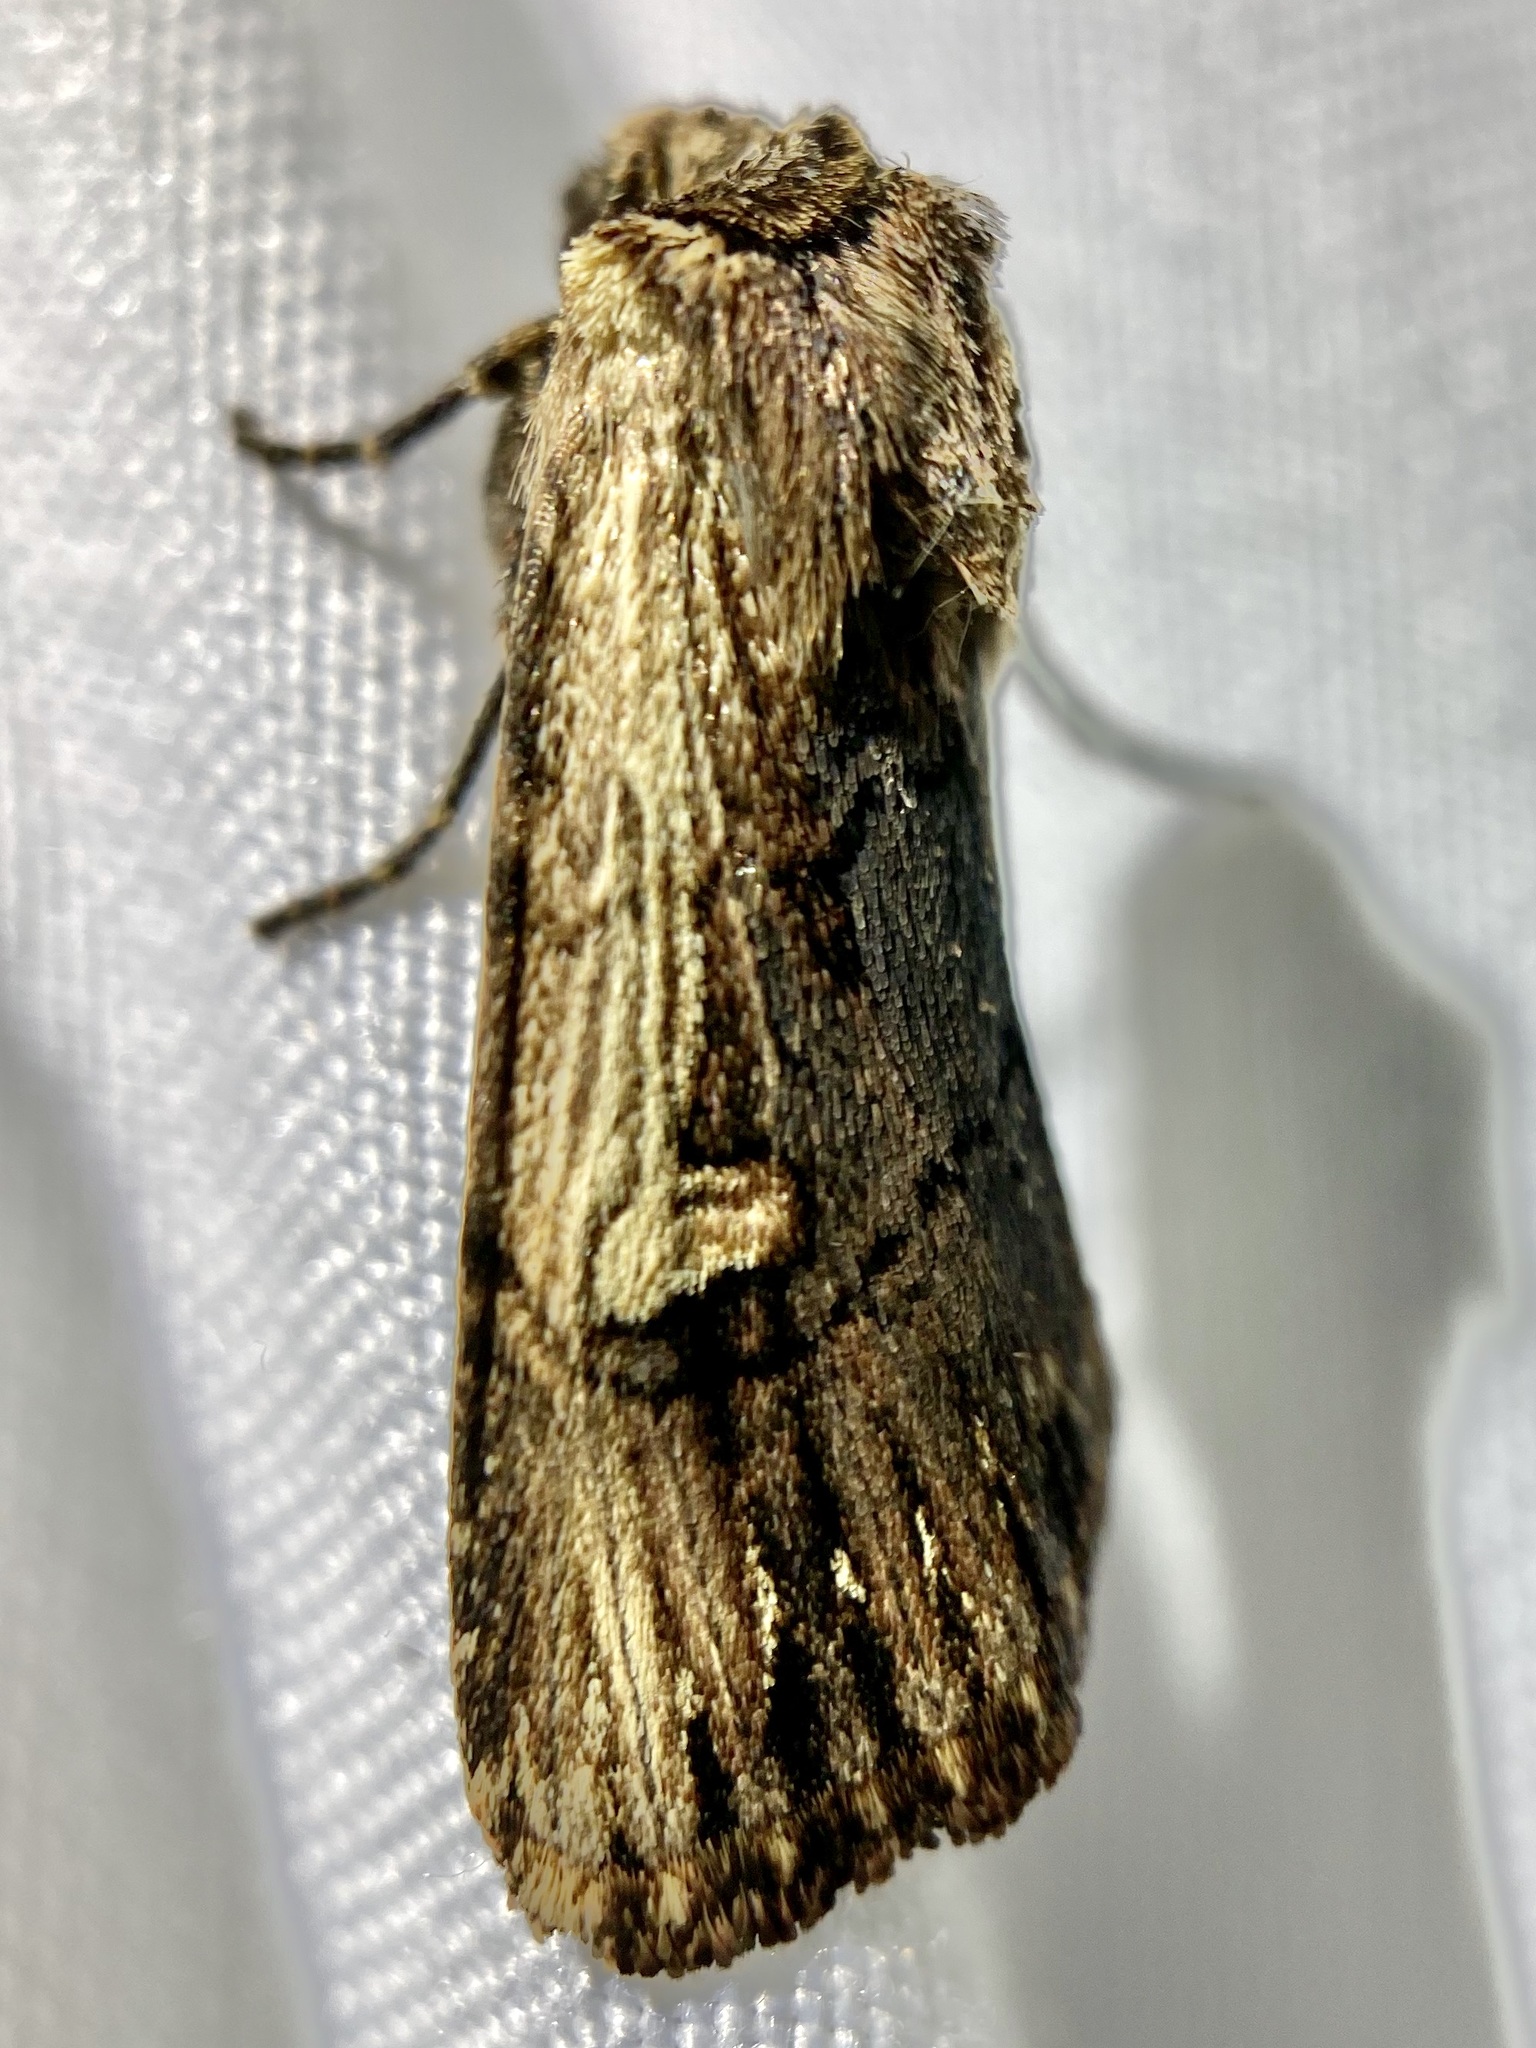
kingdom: Animalia
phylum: Arthropoda
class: Insecta
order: Lepidoptera
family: Noctuidae
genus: Dichagyris
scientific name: Dichagyris cataclivis
